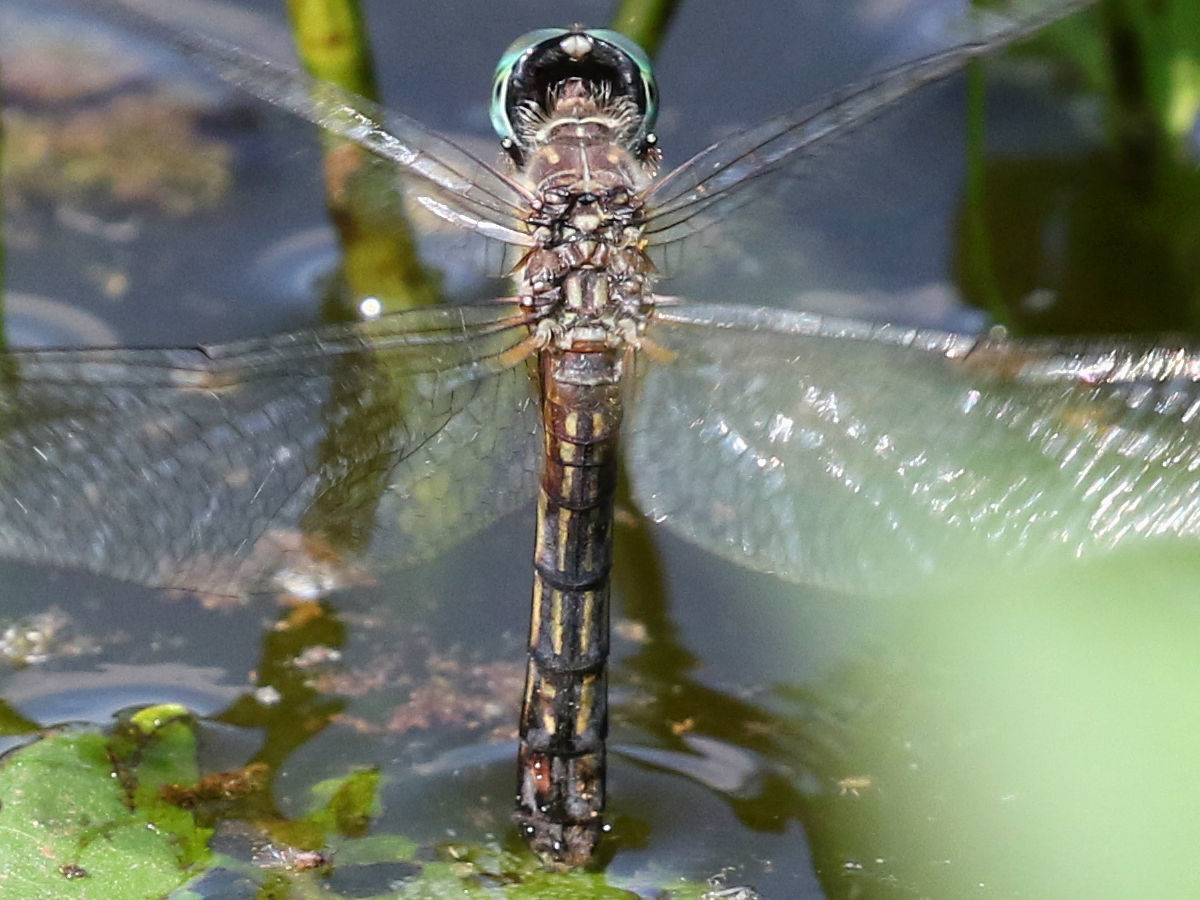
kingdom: Animalia
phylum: Arthropoda
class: Insecta
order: Odonata
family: Libellulidae
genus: Pachydiplax
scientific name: Pachydiplax longipennis
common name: Blue dasher
